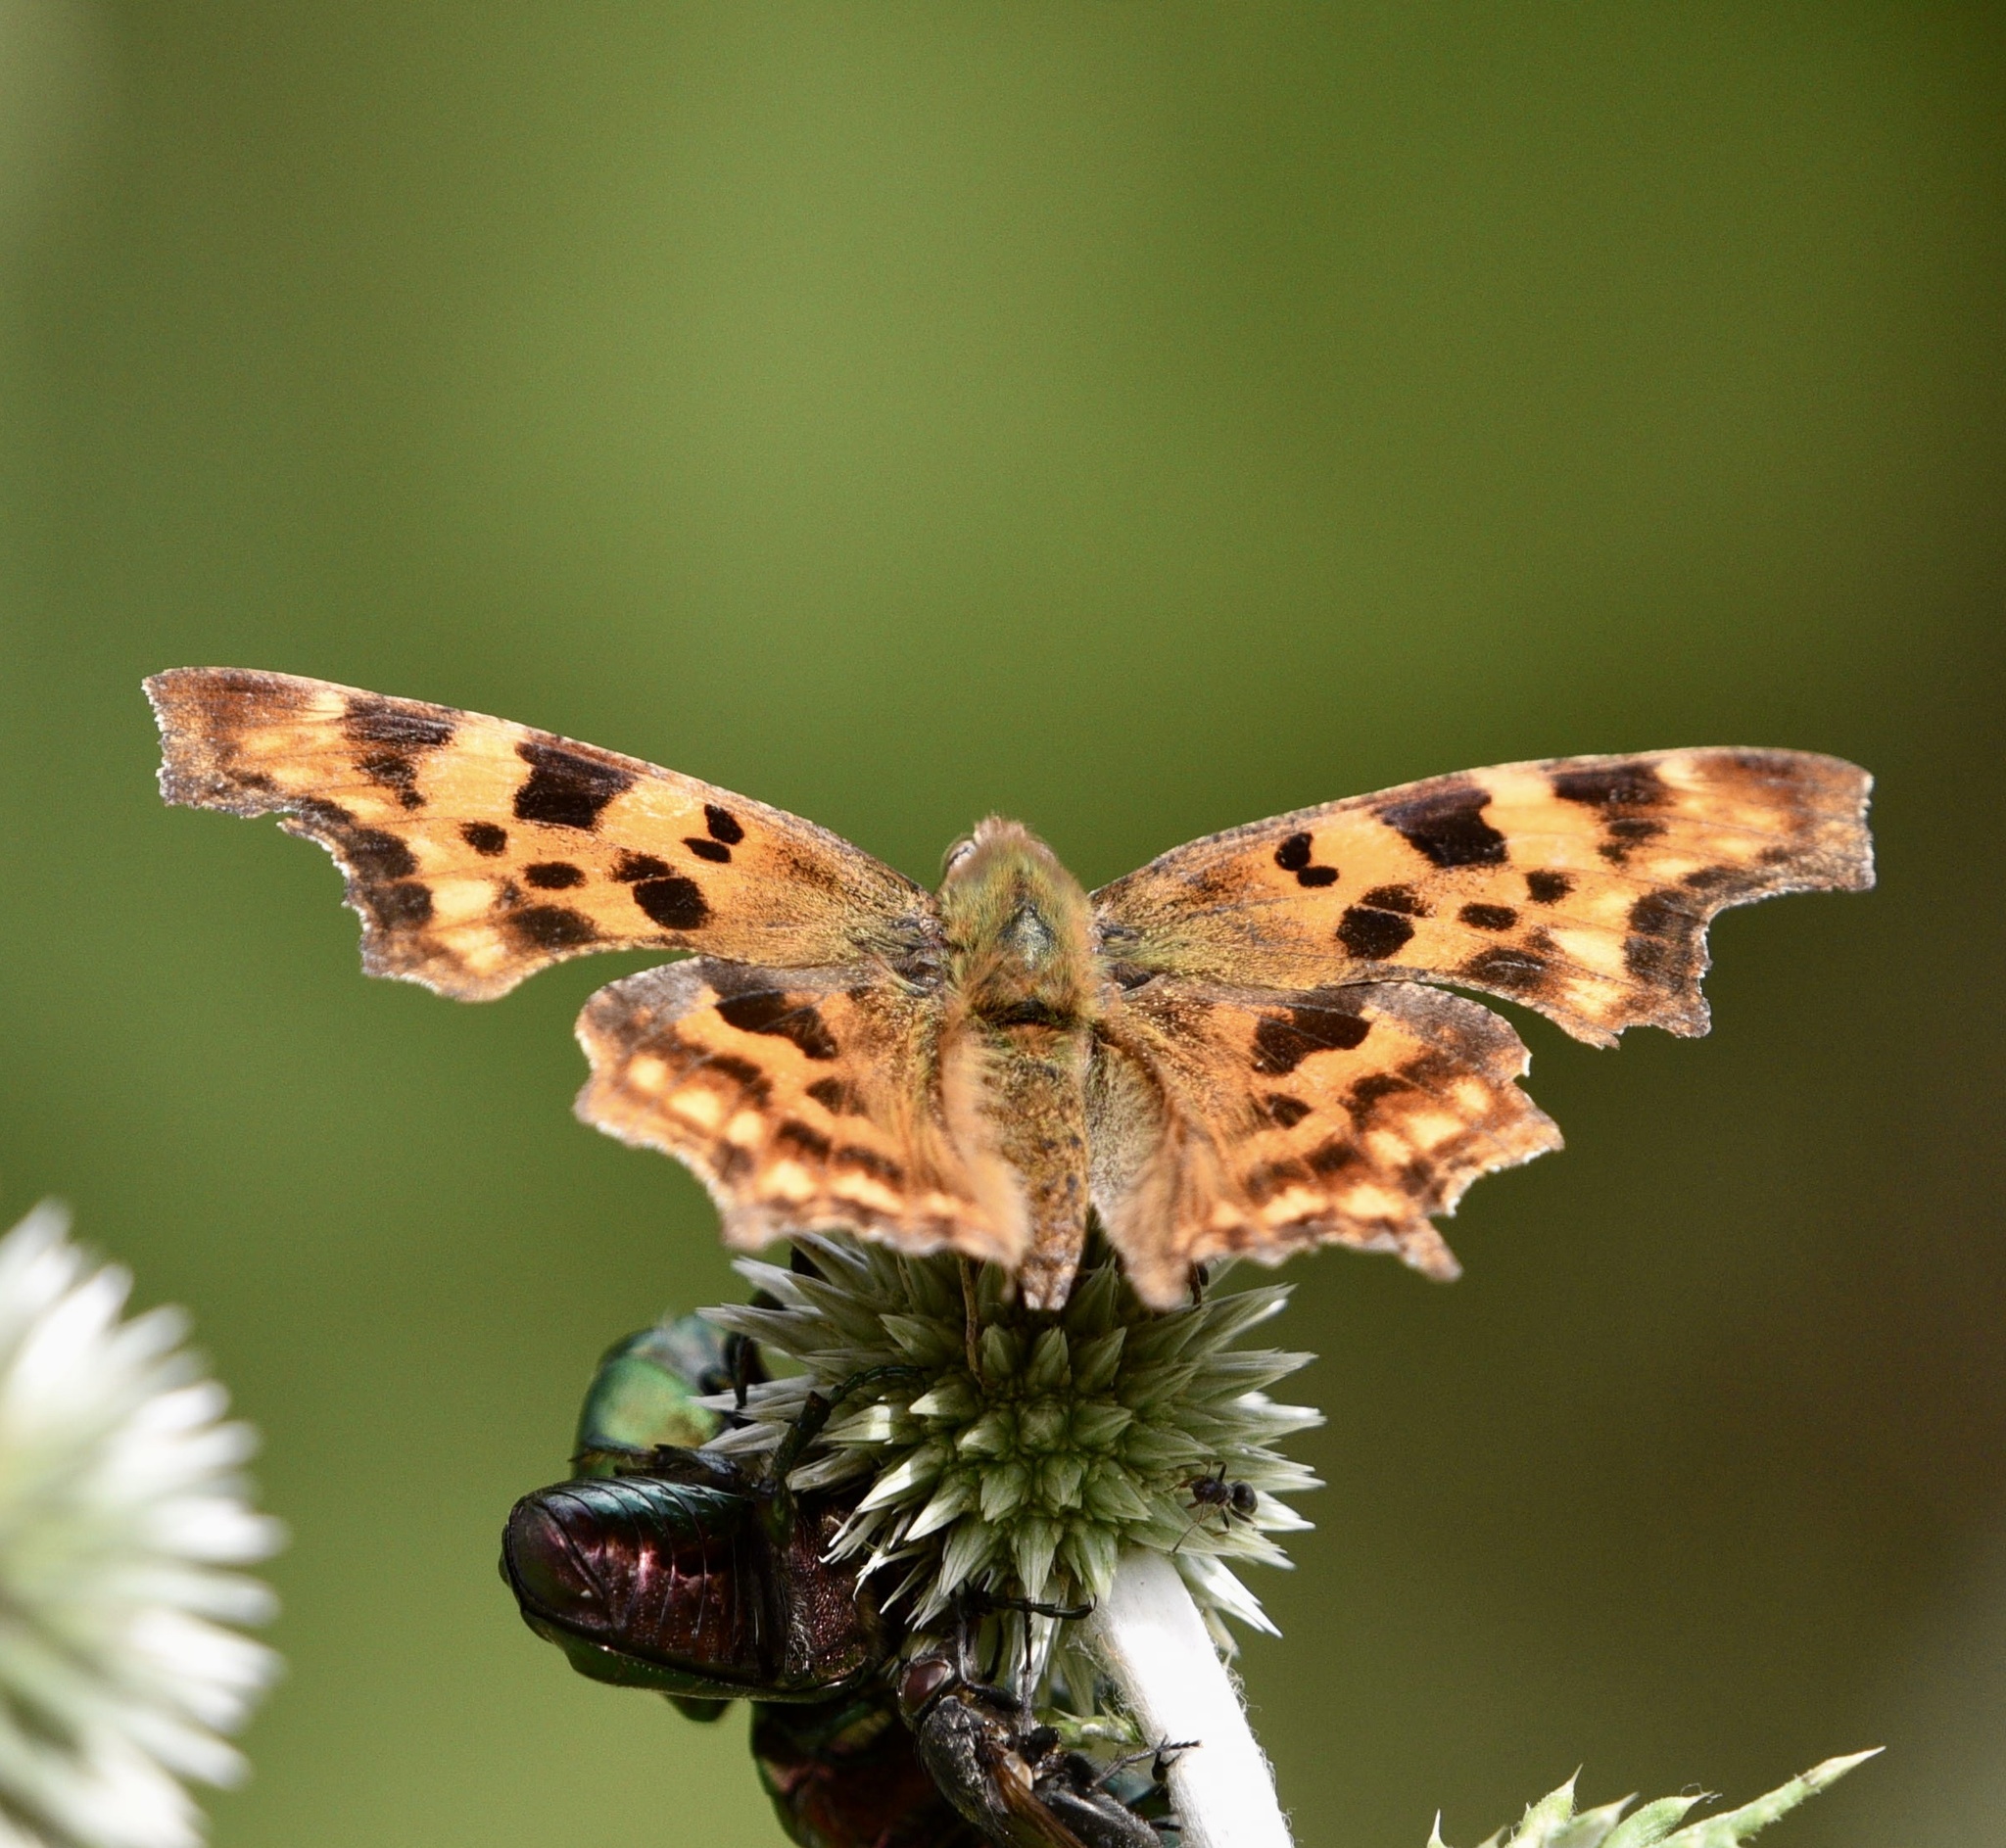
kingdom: Animalia
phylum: Arthropoda
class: Insecta
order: Lepidoptera
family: Nymphalidae
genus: Polygonia
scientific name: Polygonia c-album
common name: Comma
